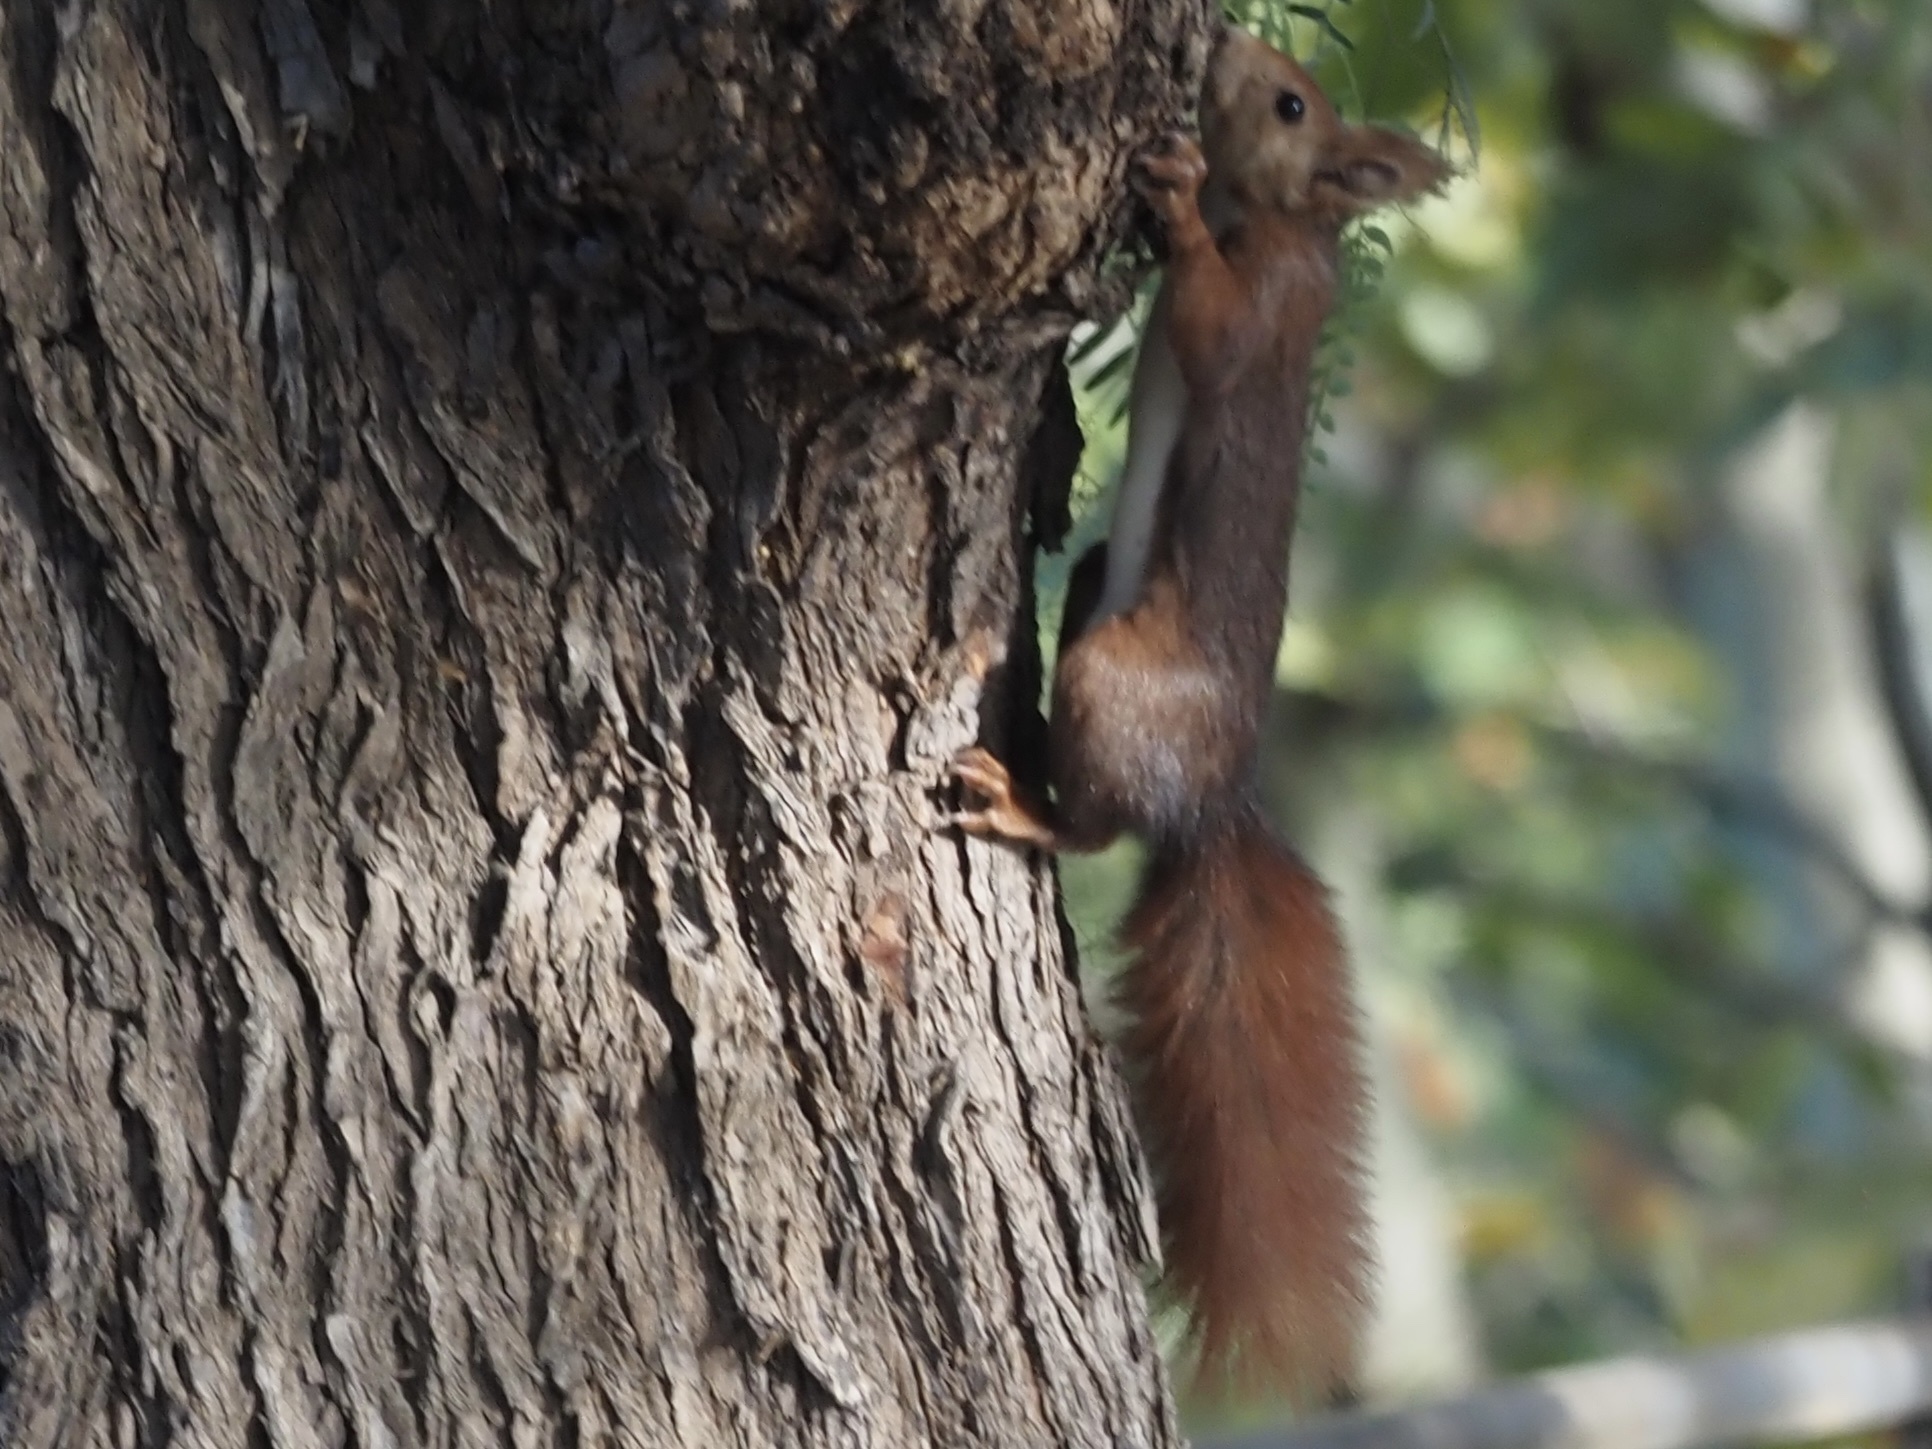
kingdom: Animalia
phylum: Chordata
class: Mammalia
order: Rodentia
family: Sciuridae
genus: Sciurus
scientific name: Sciurus vulgaris
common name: Eurasian red squirrel
